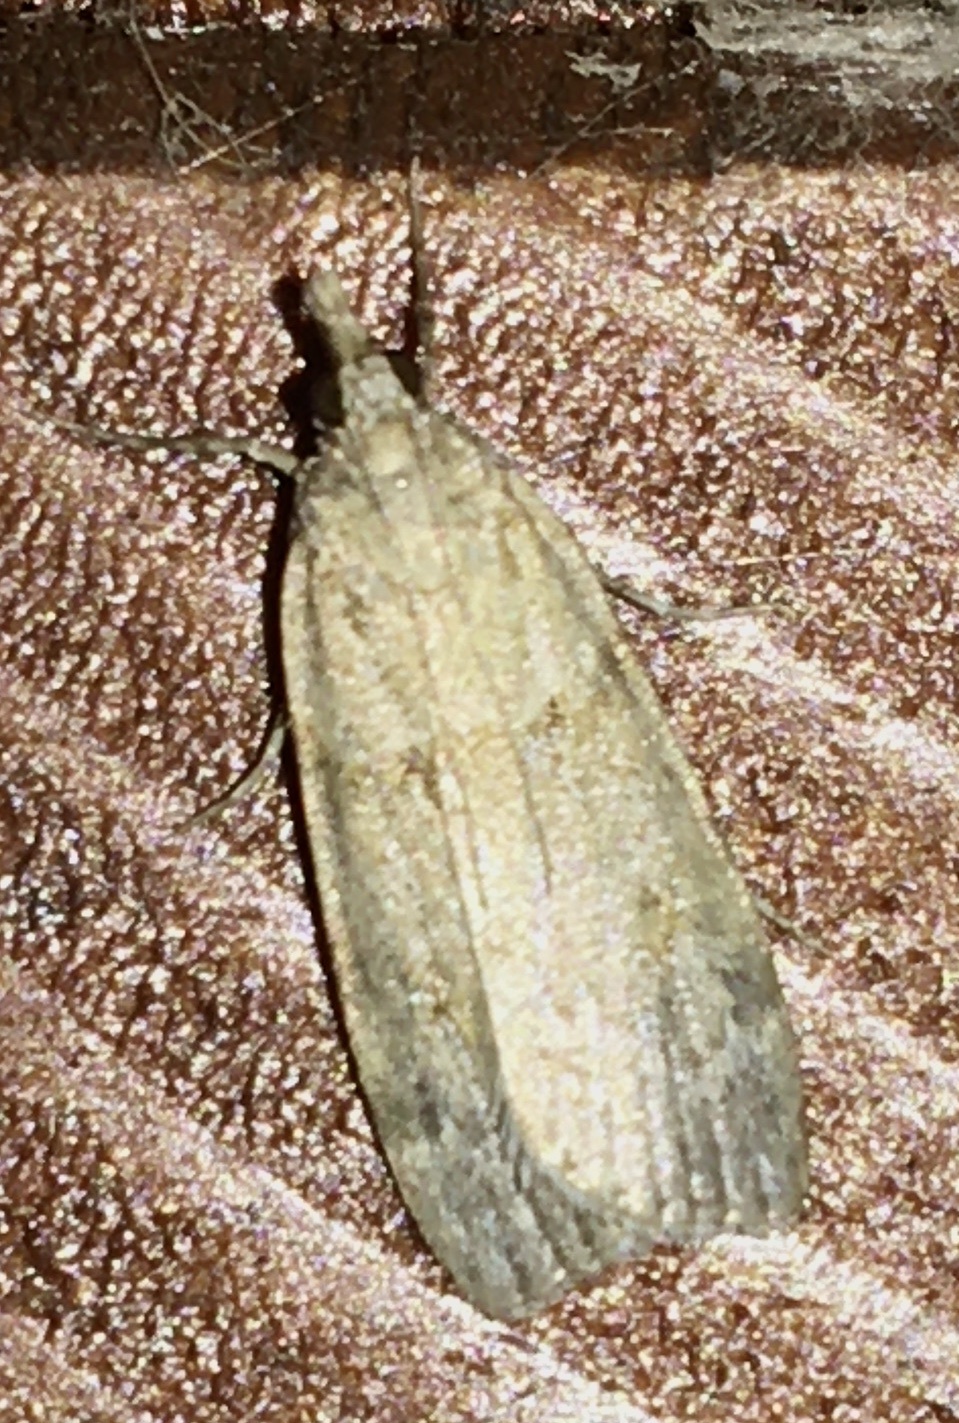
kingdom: Animalia
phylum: Arthropoda
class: Insecta
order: Lepidoptera
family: Crambidae
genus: Scoparia
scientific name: Scoparia cembrella
